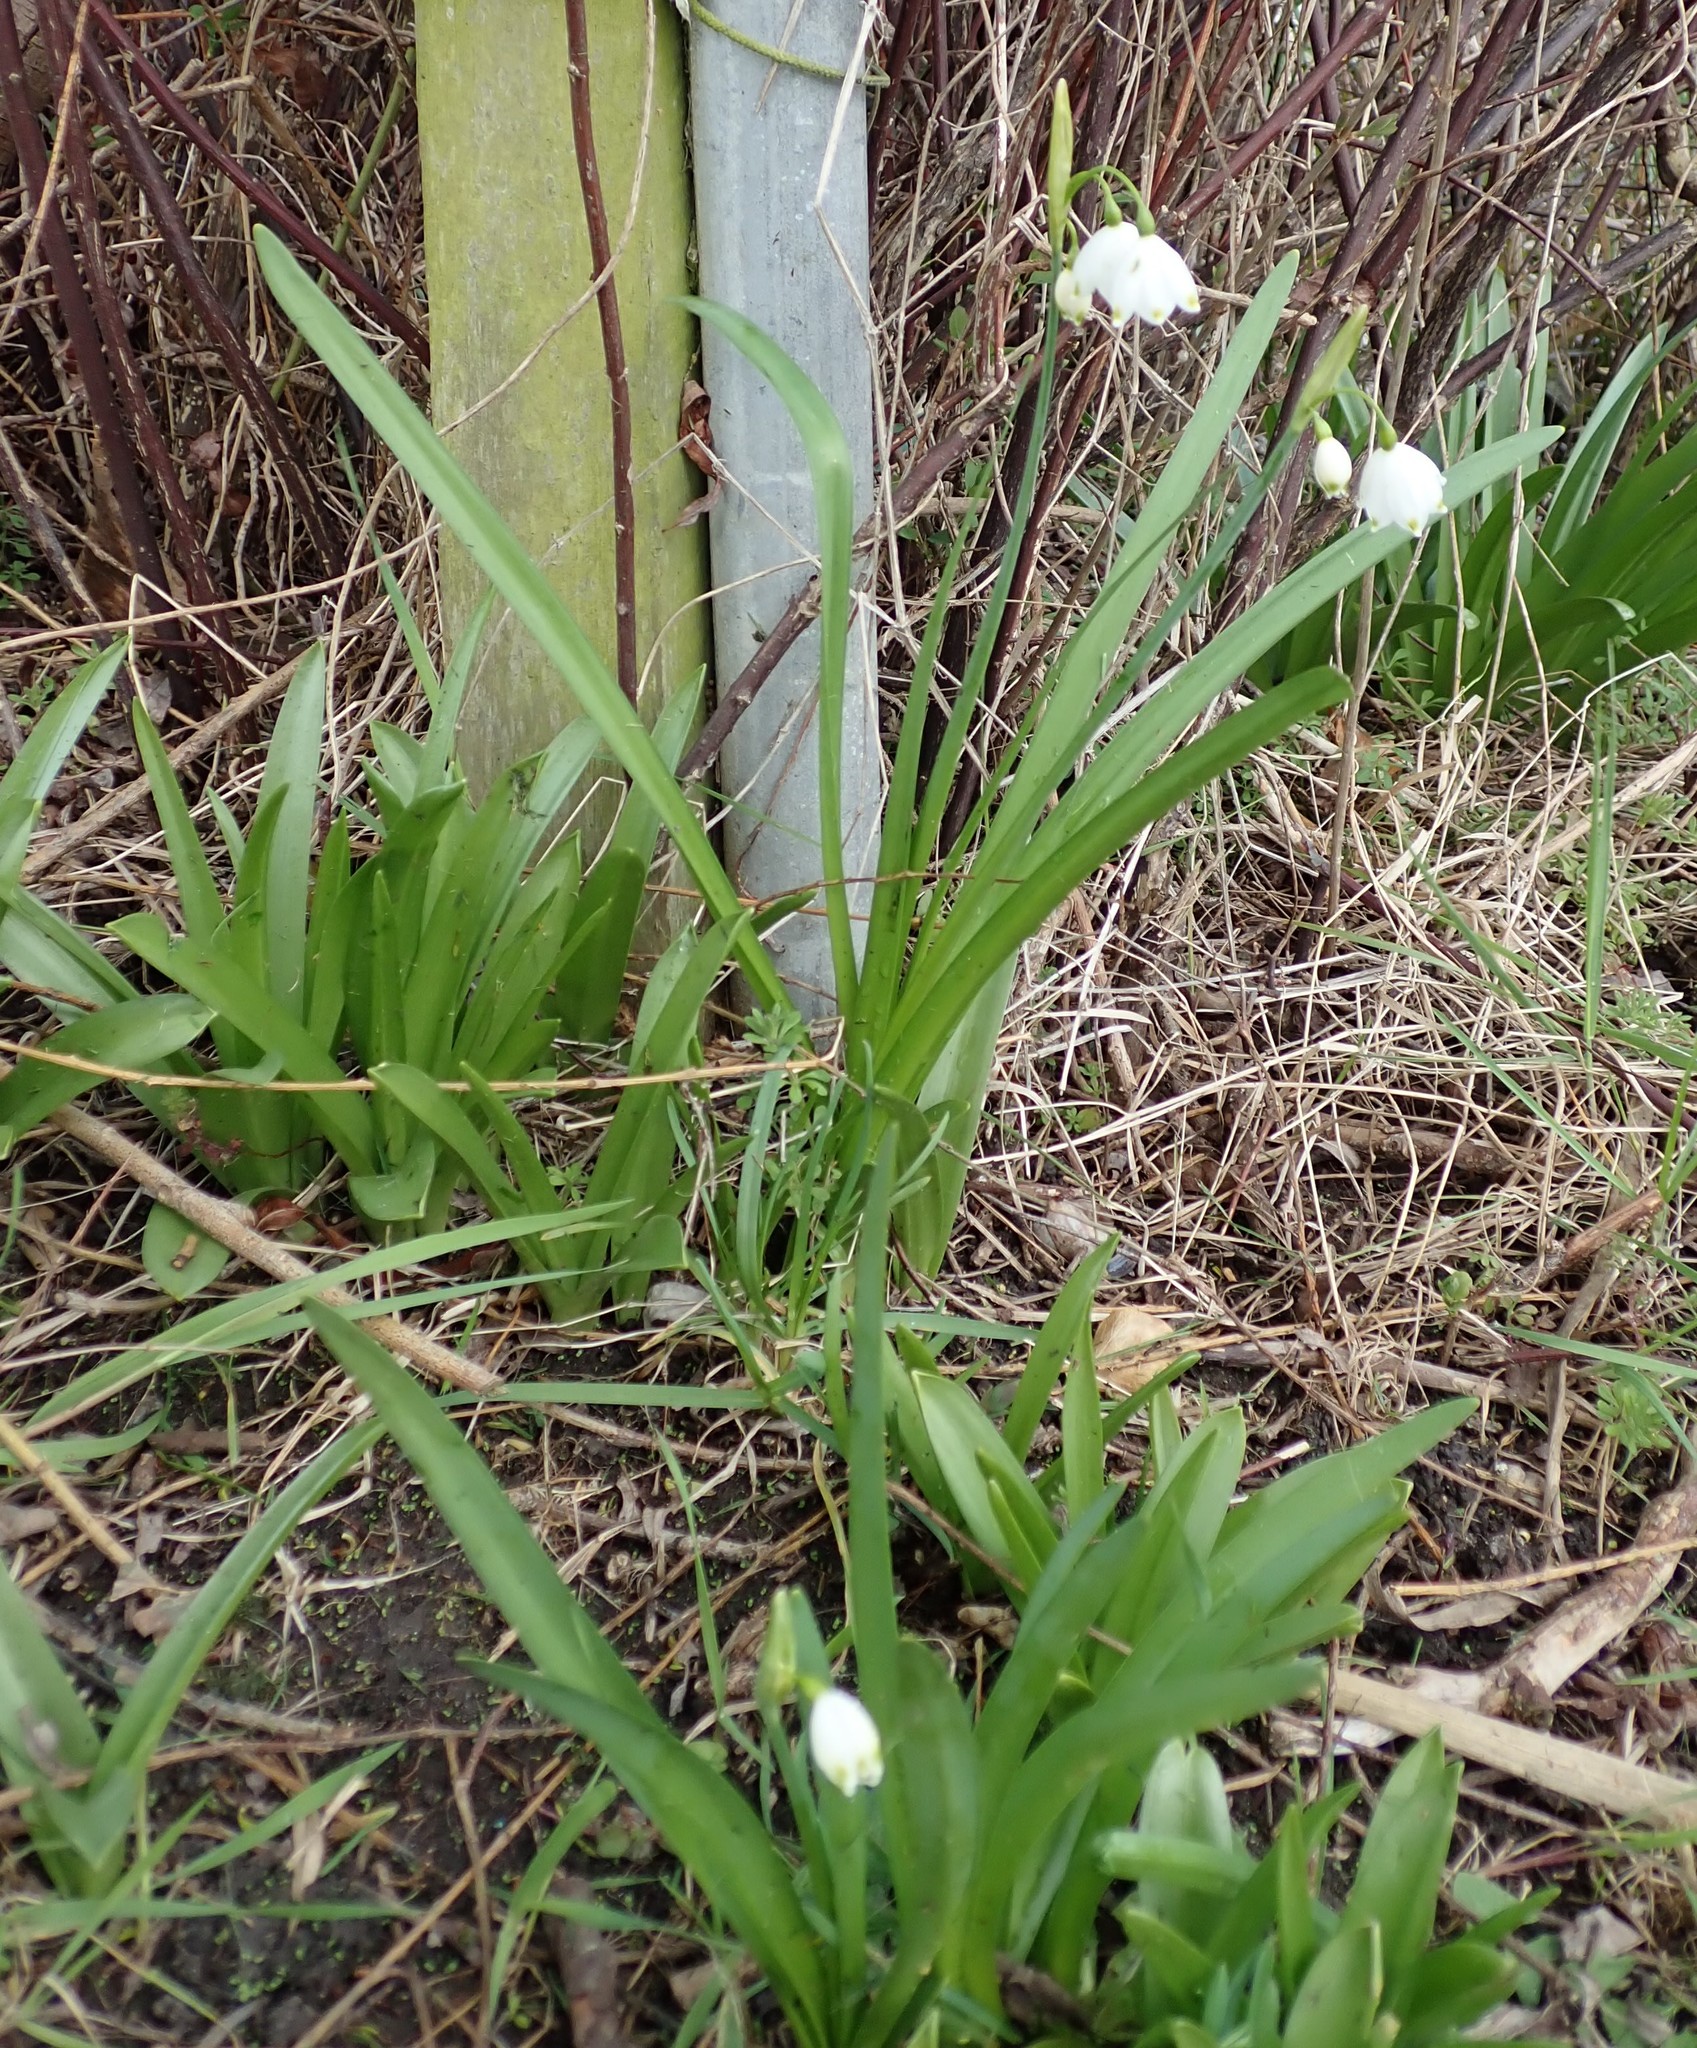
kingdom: Plantae
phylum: Tracheophyta
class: Liliopsida
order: Asparagales
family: Amaryllidaceae
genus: Leucojum
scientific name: Leucojum aestivum
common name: Summer snowflake
